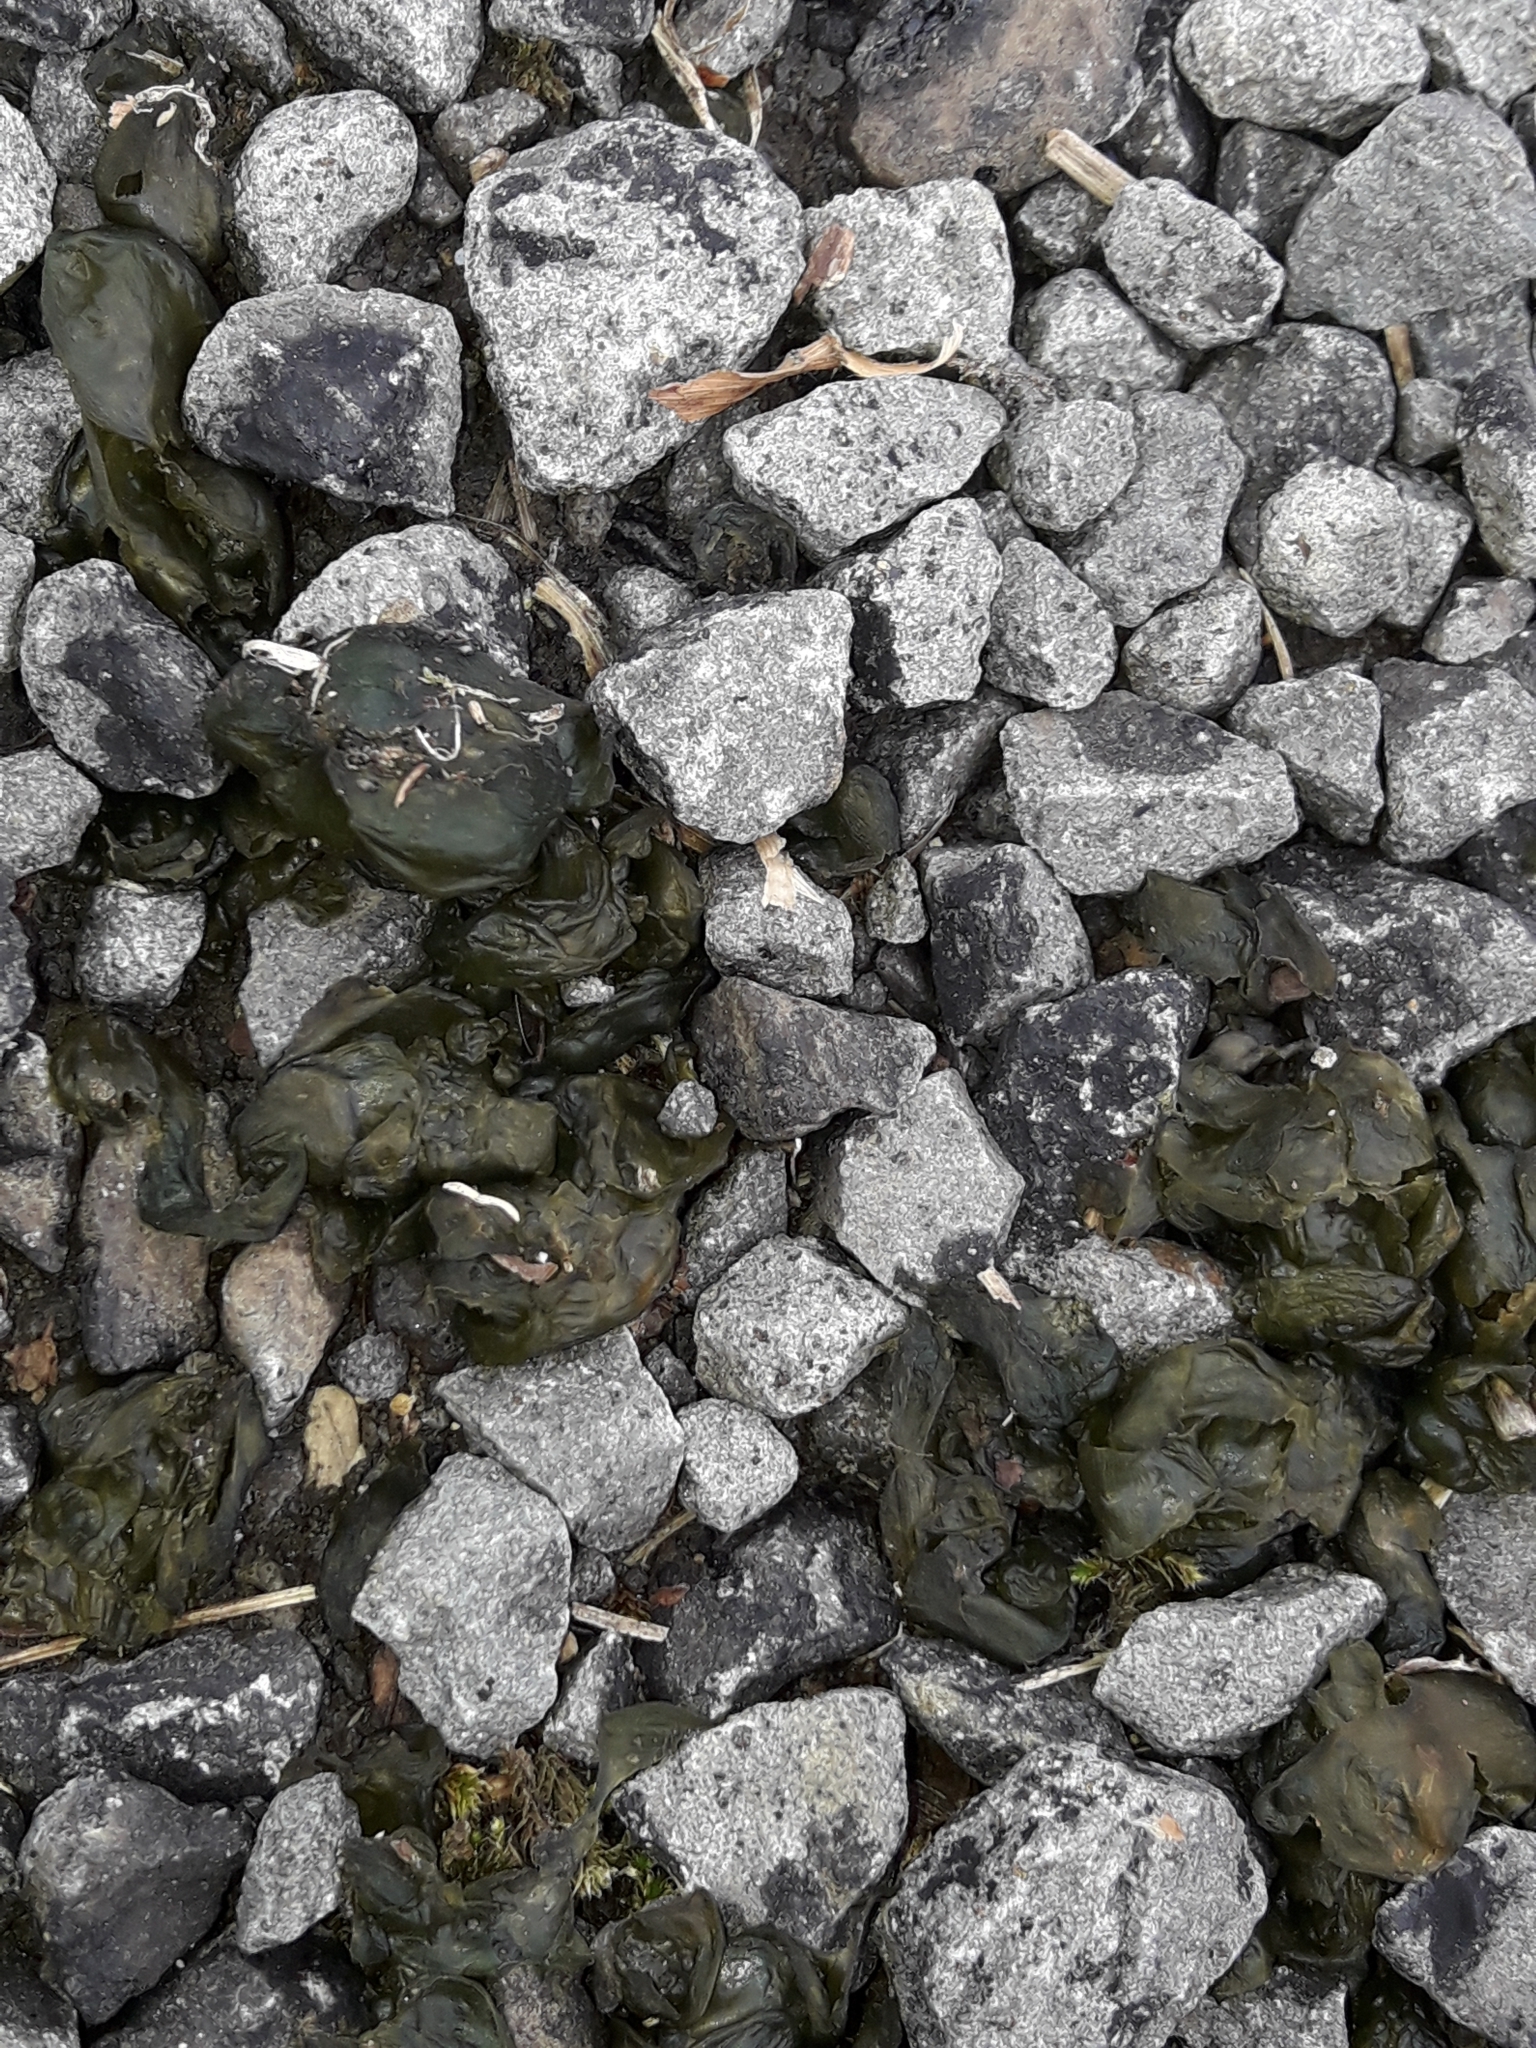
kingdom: Bacteria
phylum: Cyanobacteria
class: Cyanobacteriia
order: Cyanobacteriales
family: Nostocaceae
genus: Nostoc
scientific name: Nostoc commune
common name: Star jelly
